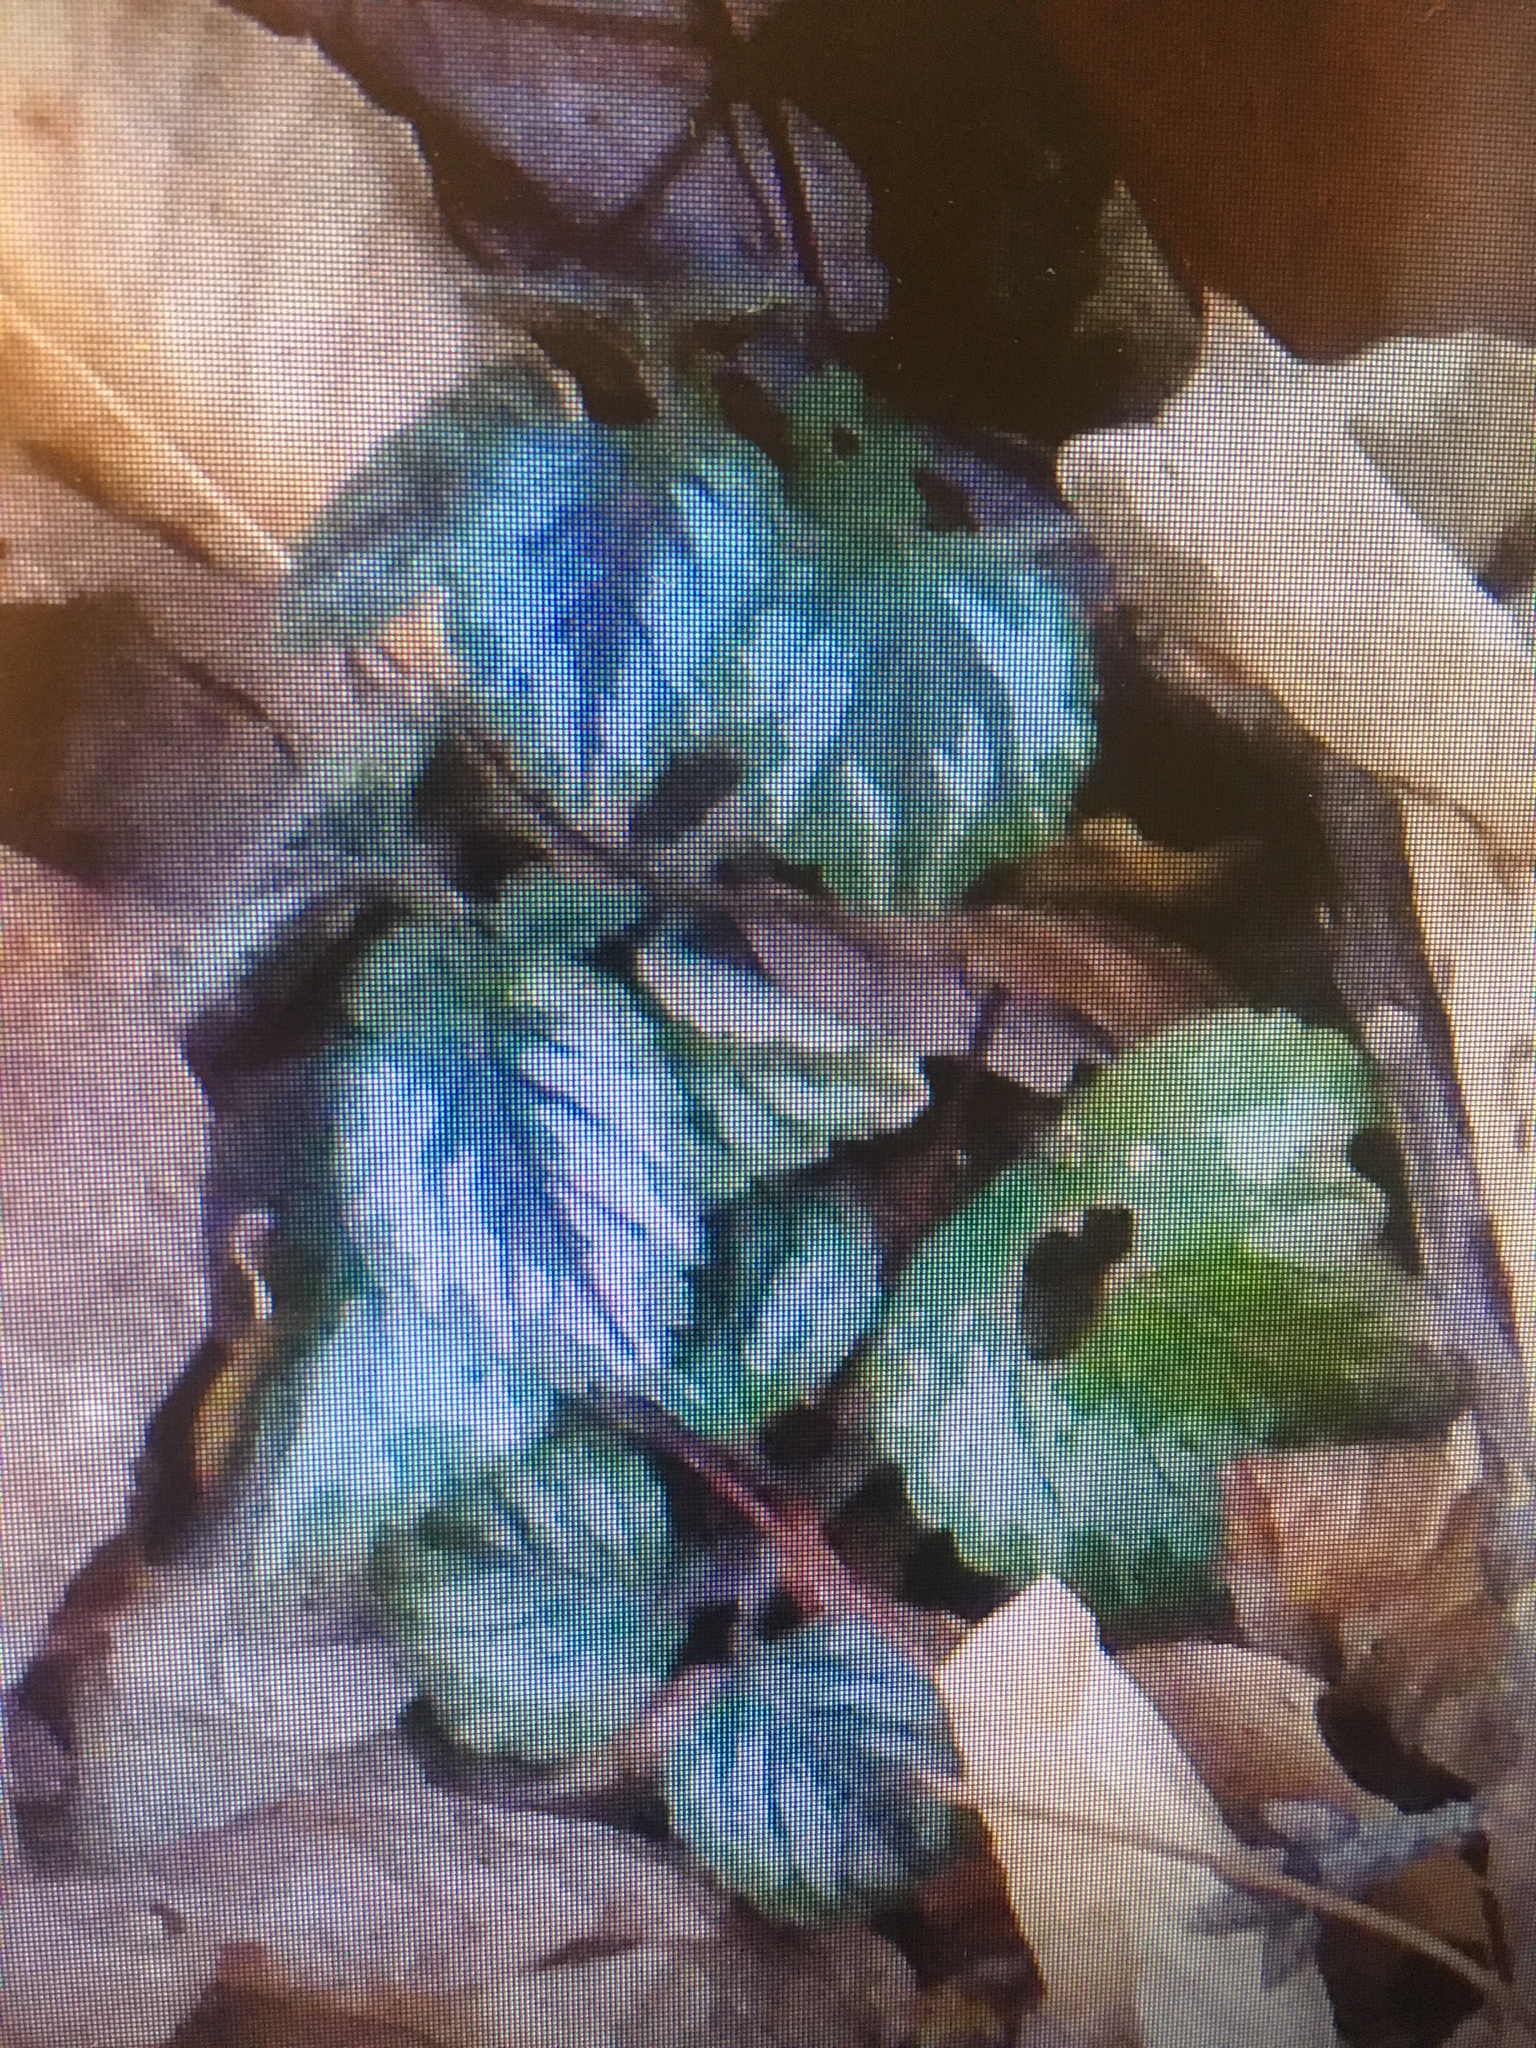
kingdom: Plantae
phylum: Tracheophyta
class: Magnoliopsida
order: Lamiales
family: Lamiaceae
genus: Lamium
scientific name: Lamium galeobdolon
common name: Yellow archangel
